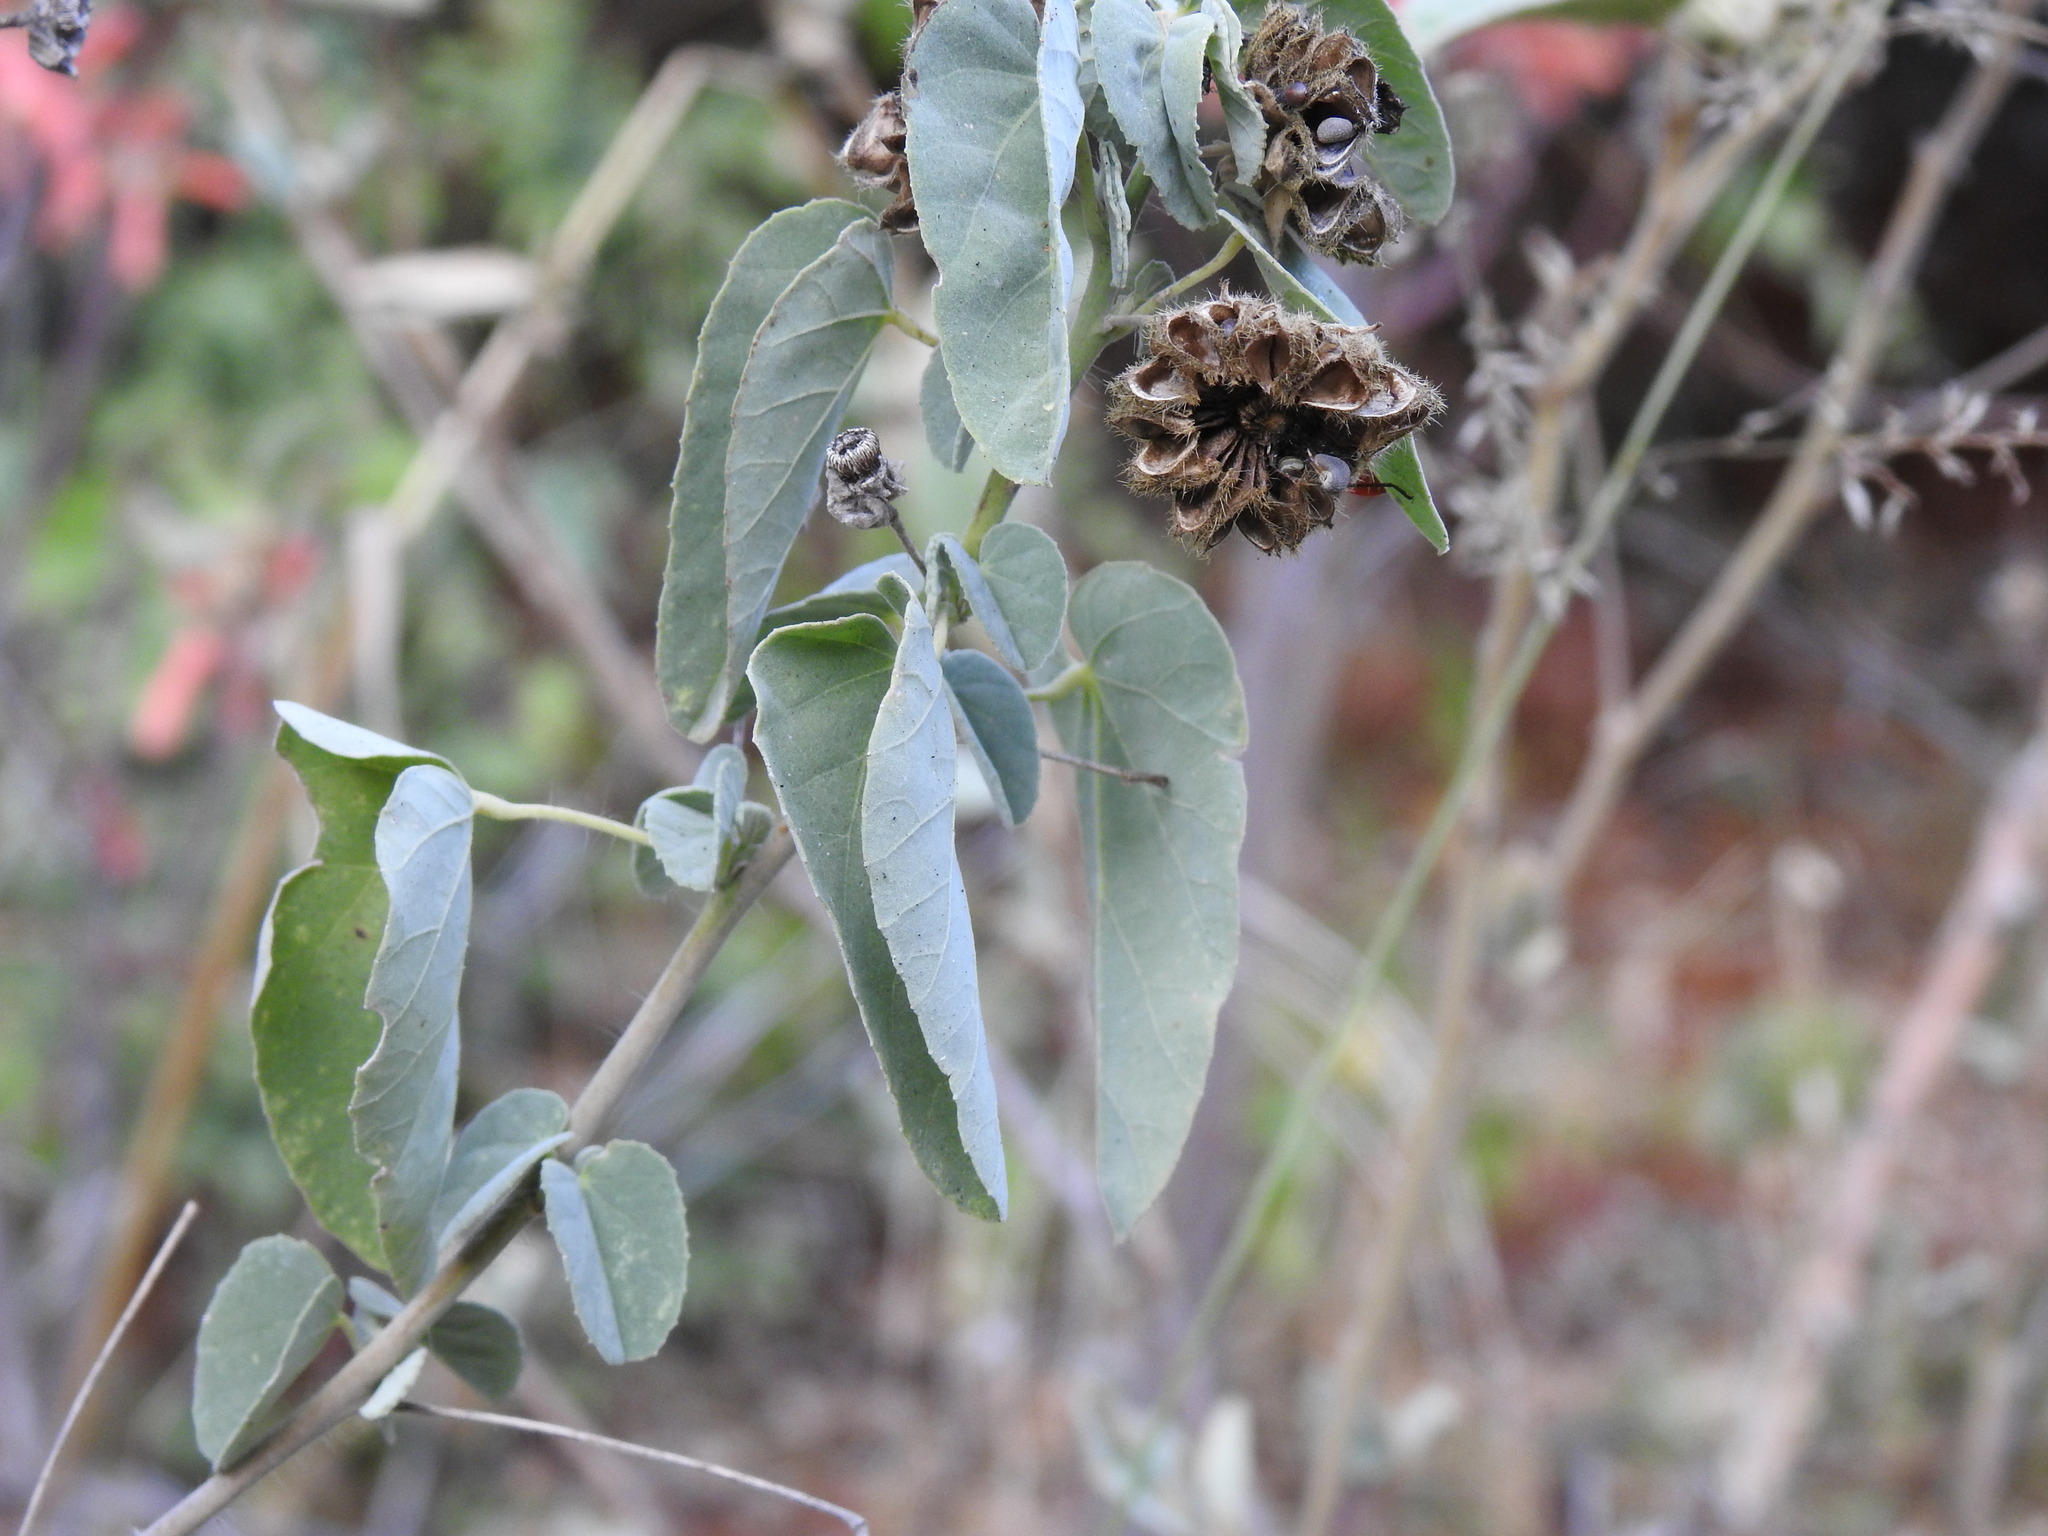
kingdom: Plantae
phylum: Tracheophyta
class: Magnoliopsida
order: Malvales
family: Malvaceae
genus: Abutilon
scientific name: Abutilon austroafricanum
